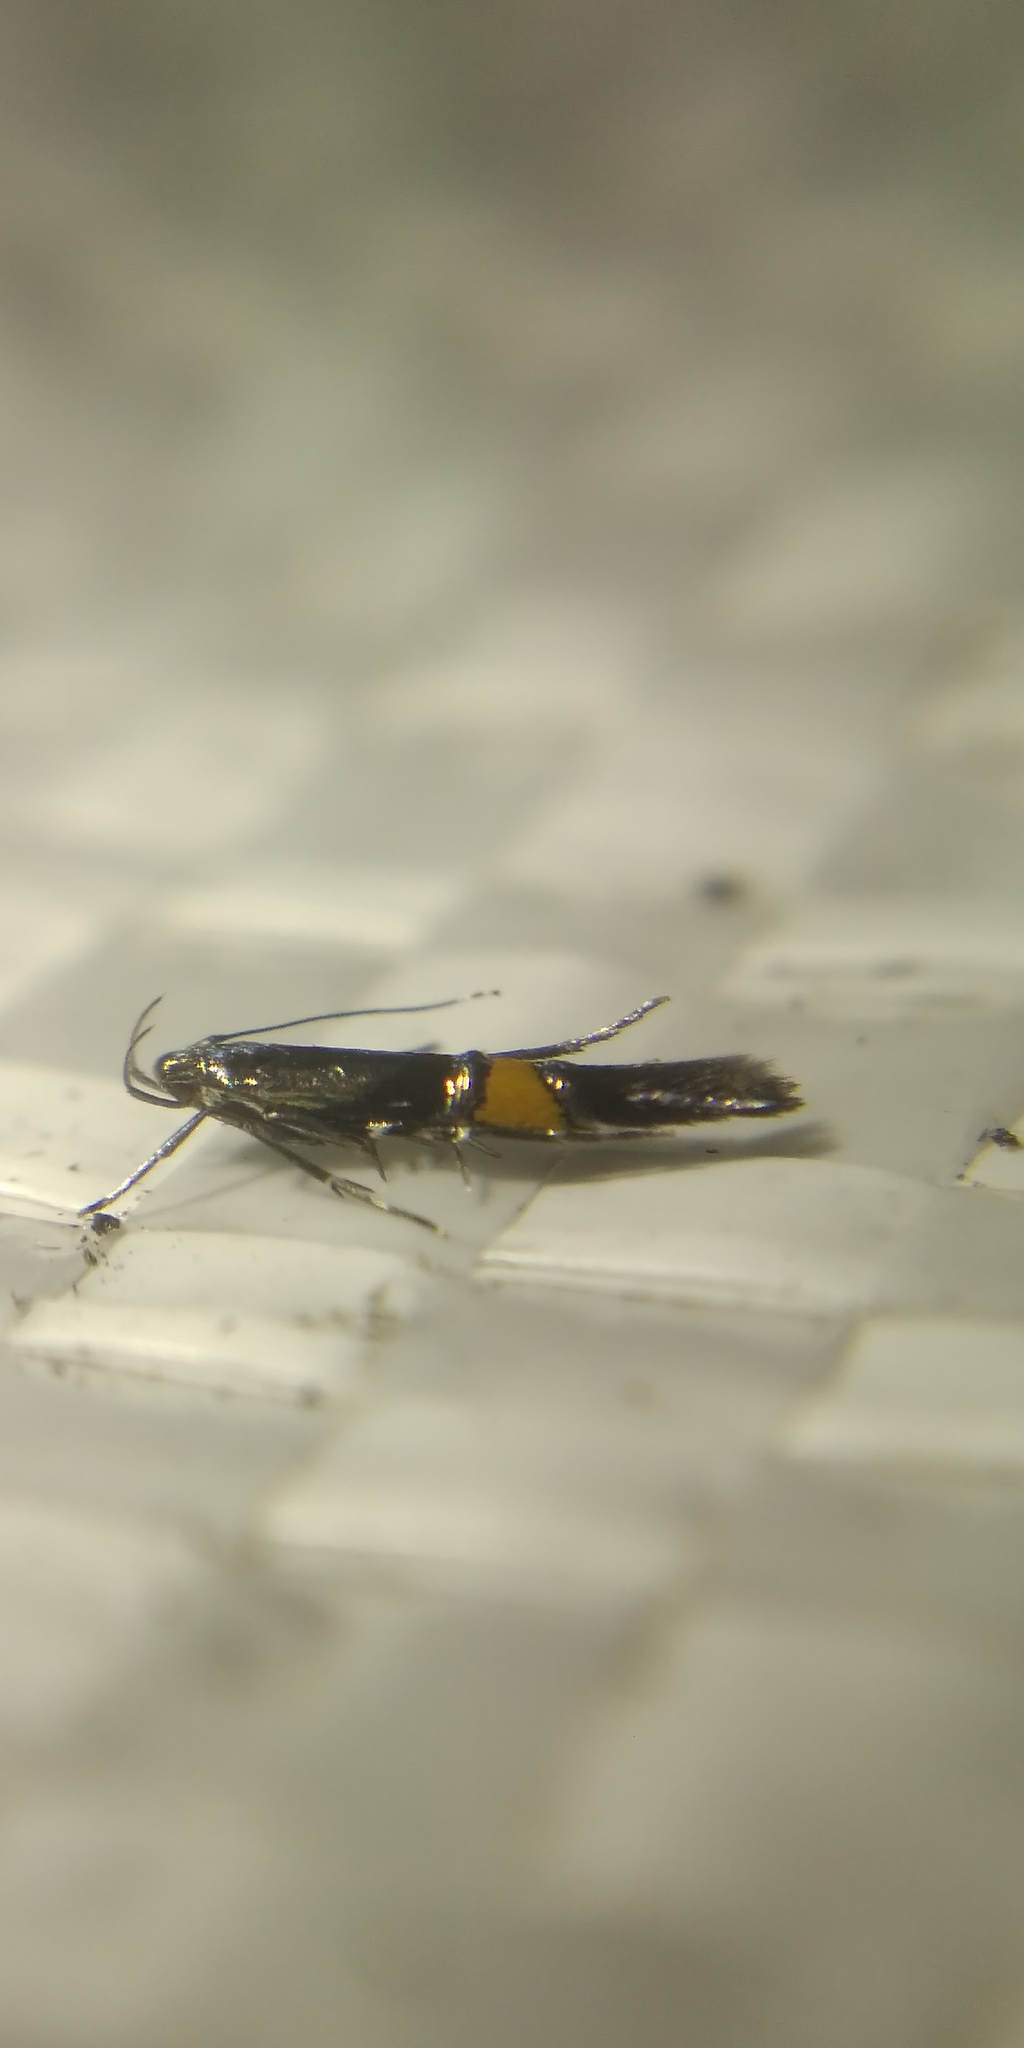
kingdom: Animalia
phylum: Arthropoda
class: Insecta
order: Lepidoptera
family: Cosmopterigidae
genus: Cosmopterix
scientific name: Cosmopterix orichalcea
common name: Marsh cosmet
